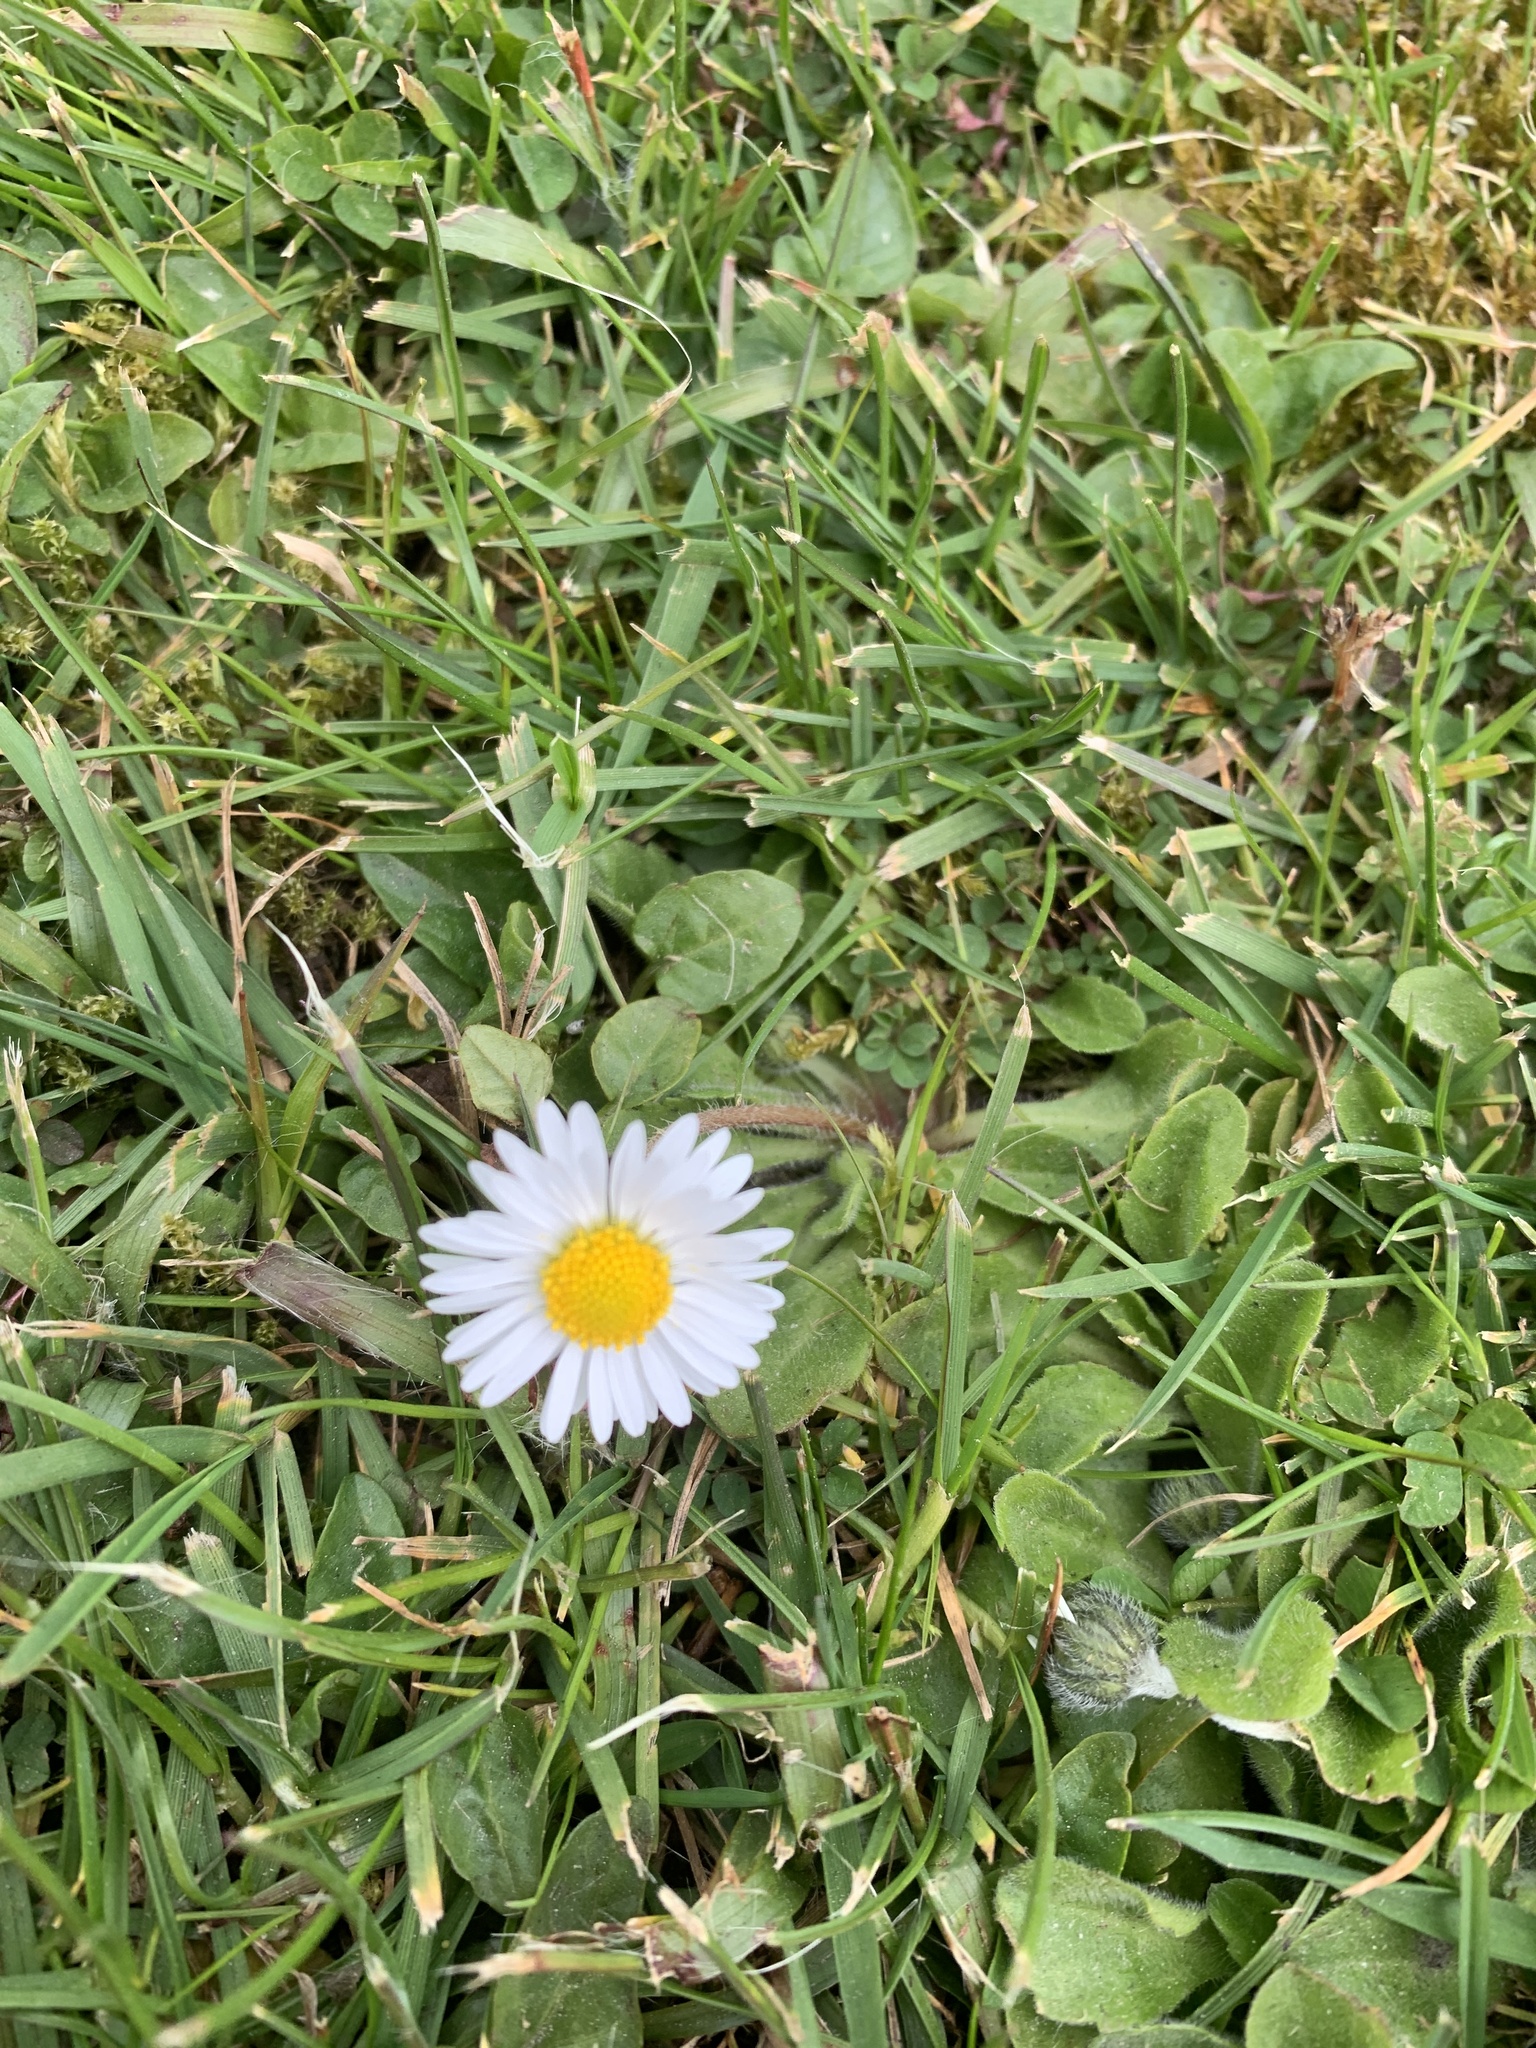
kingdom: Plantae
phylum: Tracheophyta
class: Magnoliopsida
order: Asterales
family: Asteraceae
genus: Bellis
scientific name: Bellis perennis
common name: Lawndaisy
